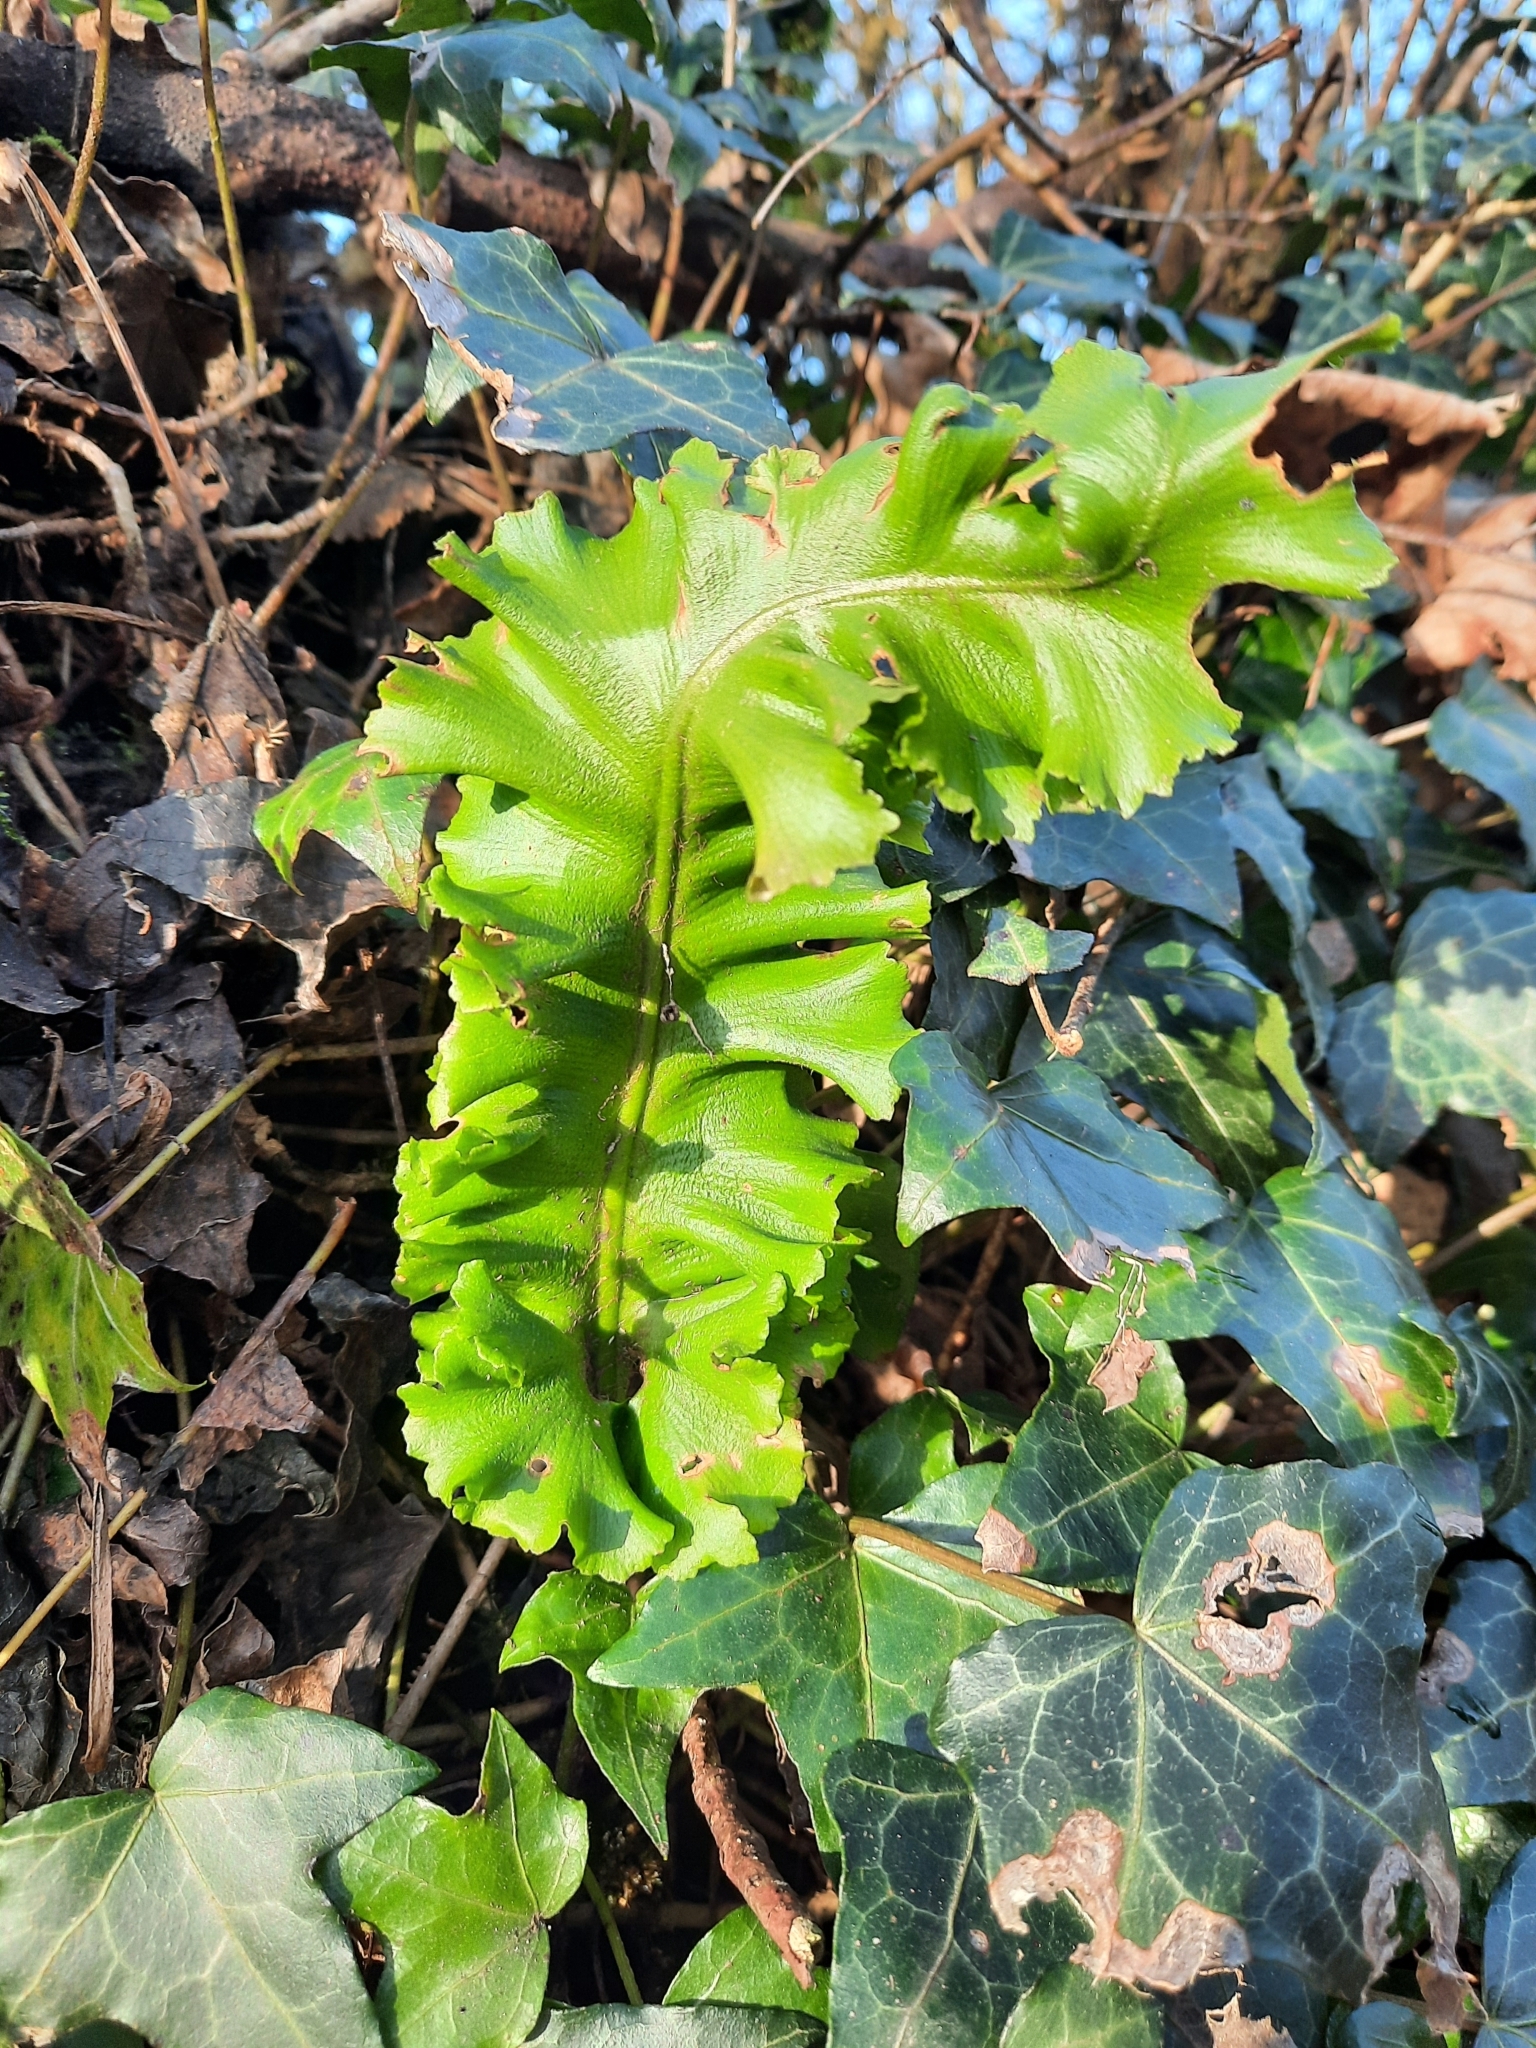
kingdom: Plantae
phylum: Tracheophyta
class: Polypodiopsida
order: Polypodiales
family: Aspleniaceae
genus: Asplenium
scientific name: Asplenium scolopendrium
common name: Hart's-tongue fern
